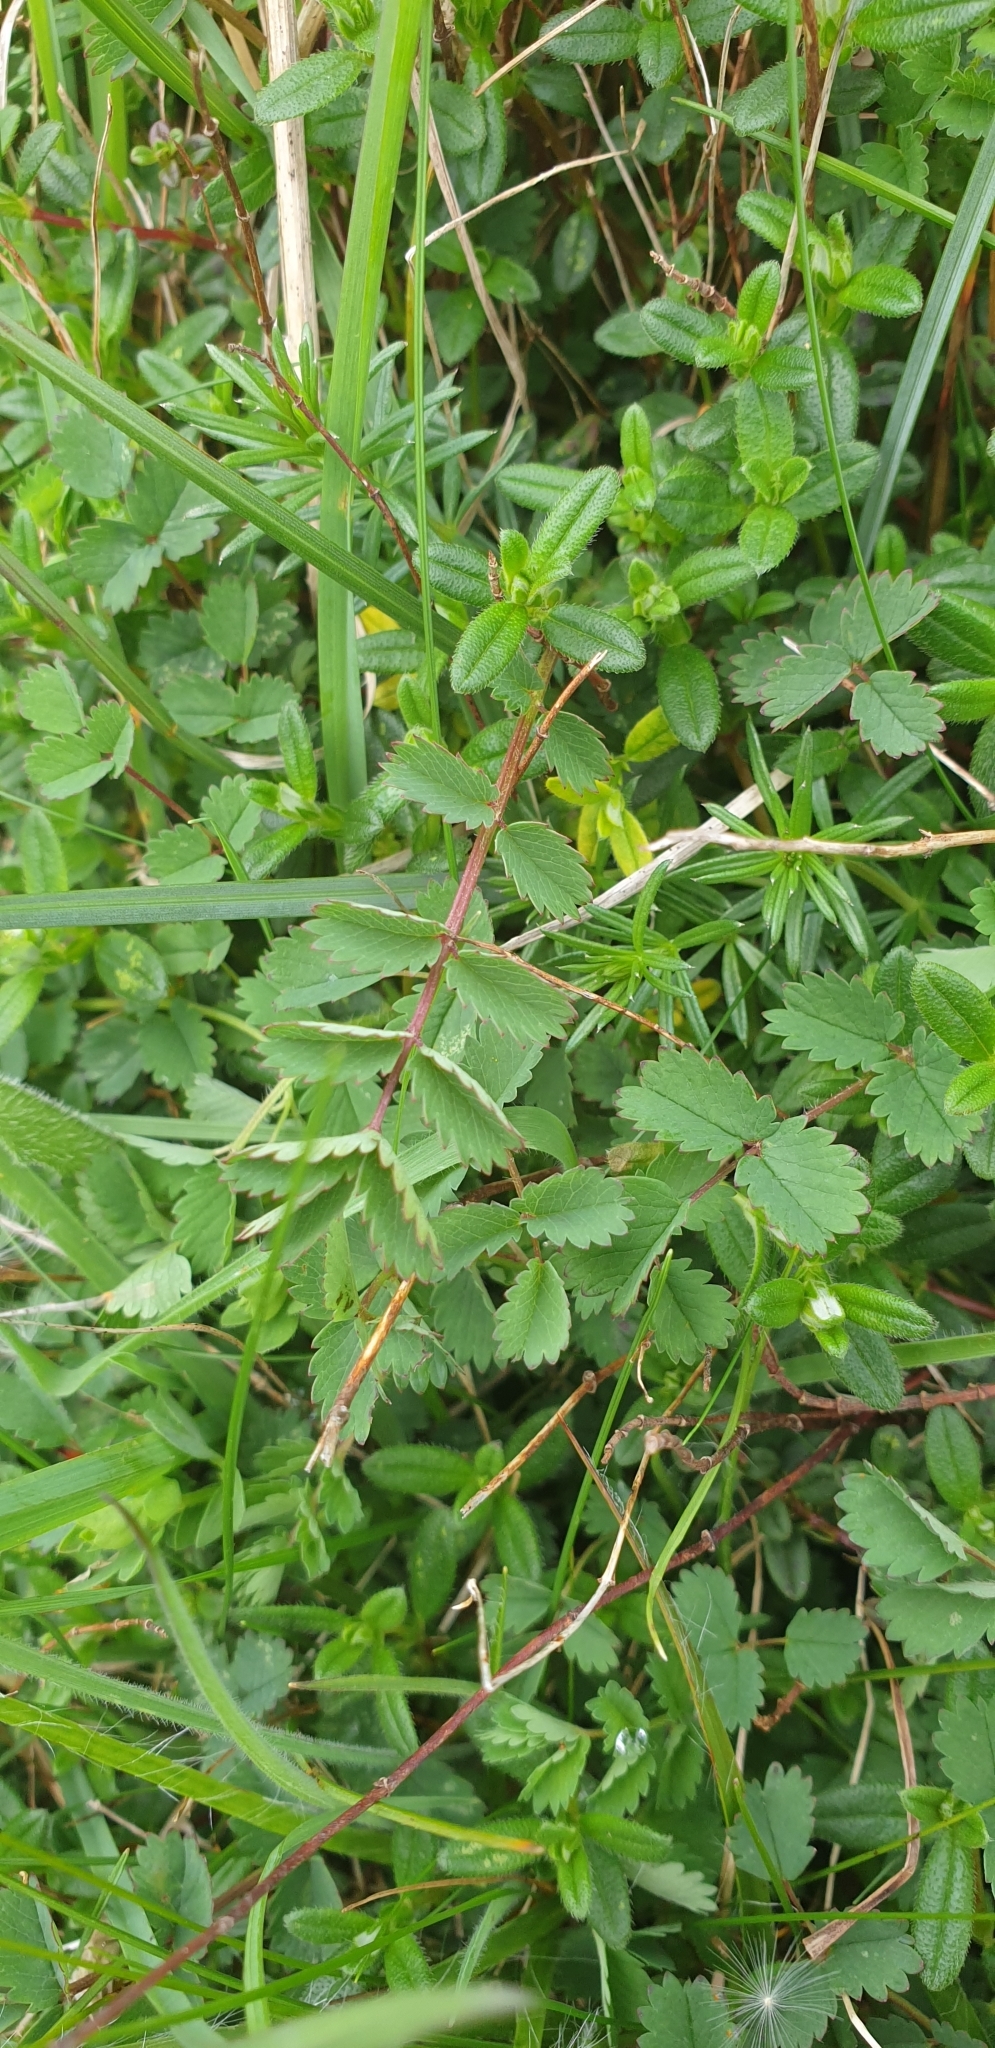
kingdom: Plantae
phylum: Tracheophyta
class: Magnoliopsida
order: Rosales
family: Rosaceae
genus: Poterium
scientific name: Poterium sanguisorba
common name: Salad burnet
